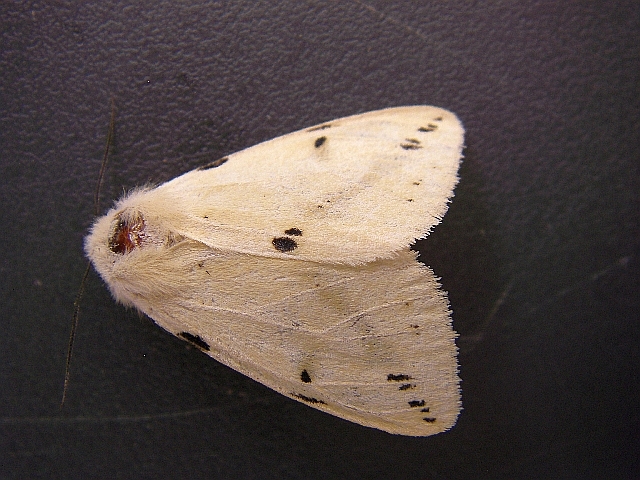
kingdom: Animalia
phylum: Arthropoda
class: Insecta
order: Lepidoptera
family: Erebidae
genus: Spilarctia
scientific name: Spilarctia lutea
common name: Buff ermine
